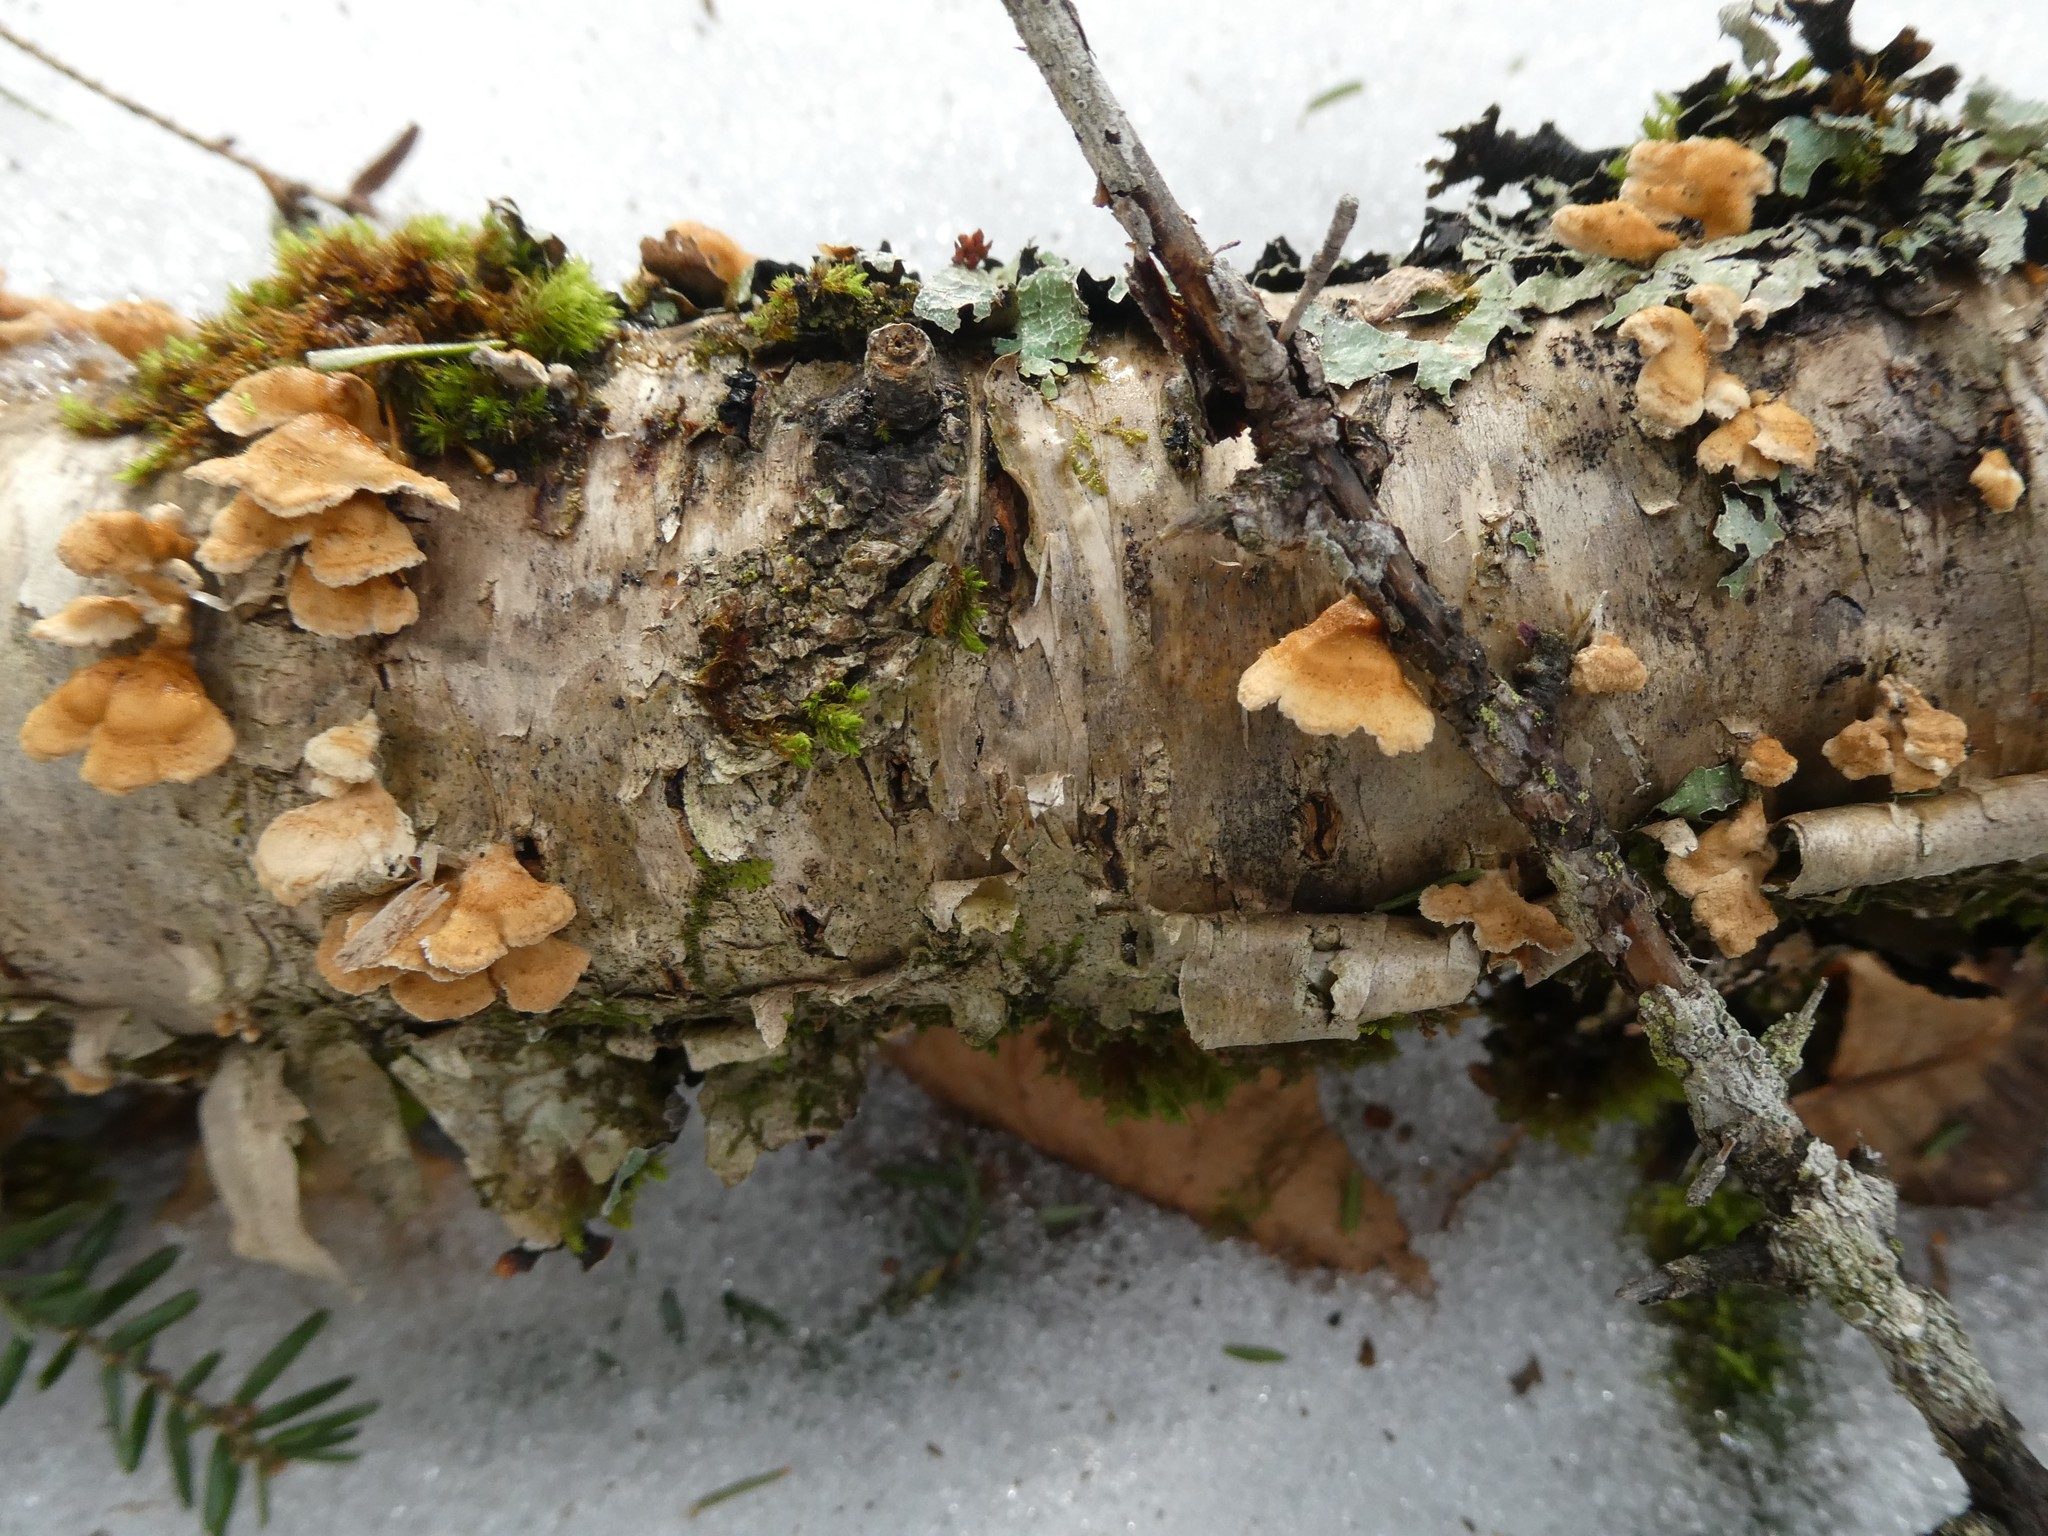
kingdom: Fungi
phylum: Basidiomycota
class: Agaricomycetes
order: Amylocorticiales
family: Amylocorticiaceae
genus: Plicaturopsis
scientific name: Plicaturopsis crispa
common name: Crimped gill
